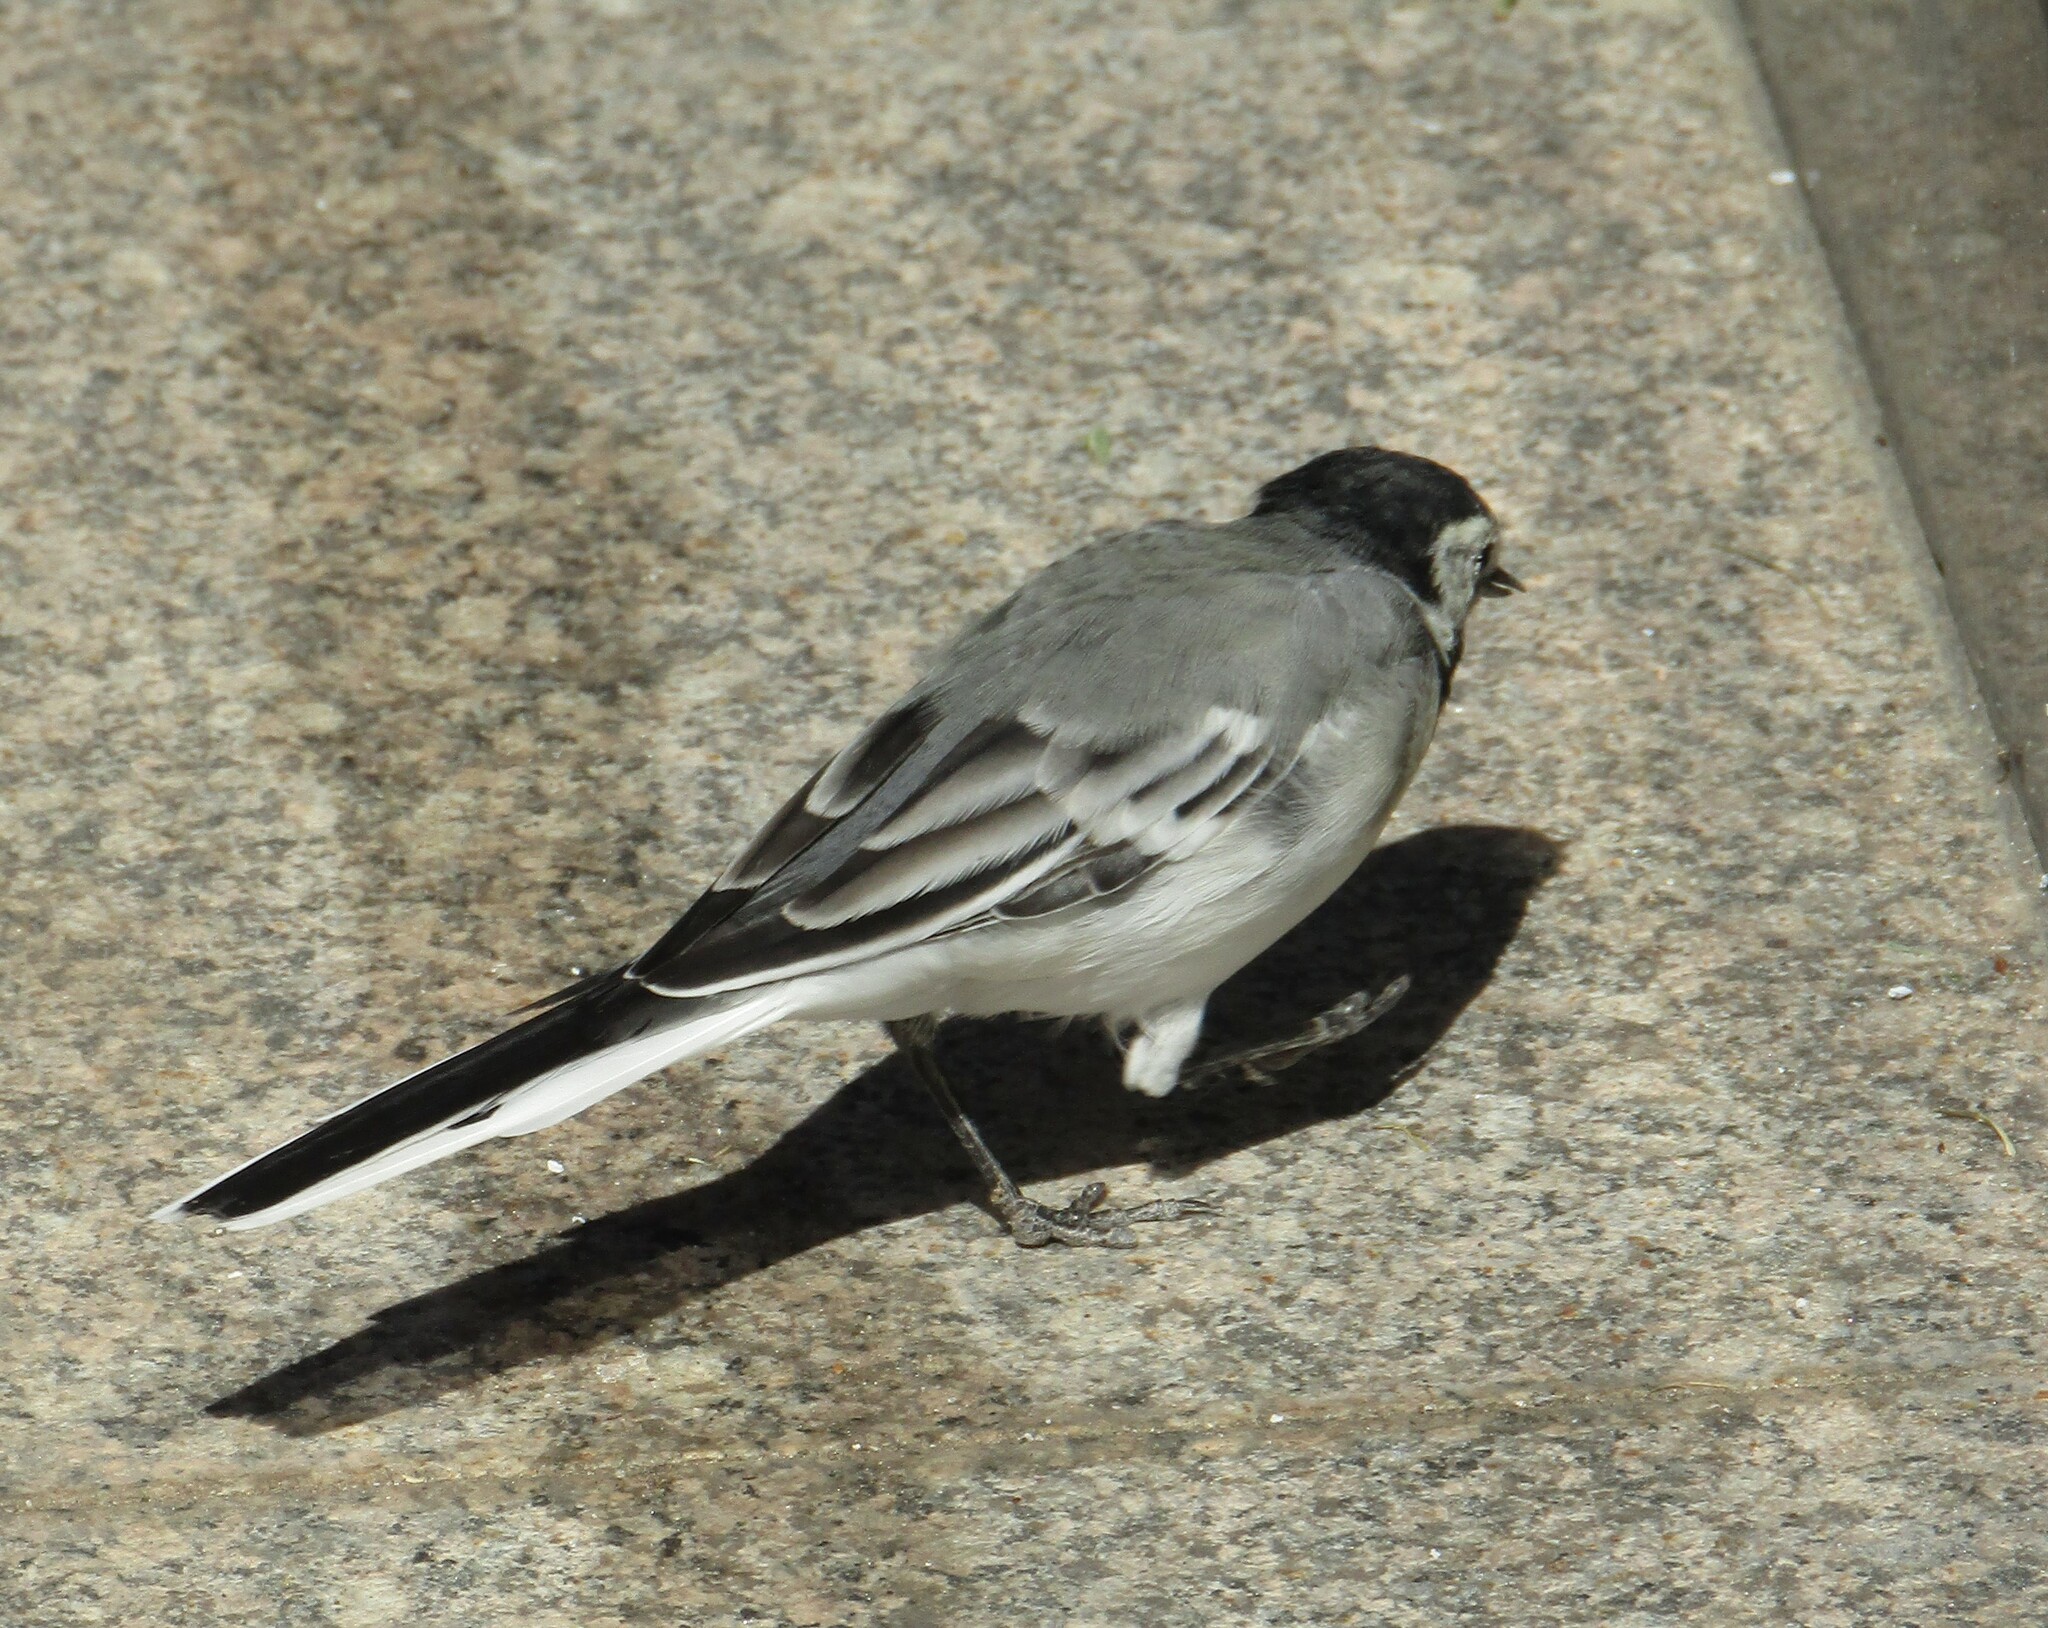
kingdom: Animalia
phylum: Chordata
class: Aves
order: Passeriformes
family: Motacillidae
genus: Motacilla
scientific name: Motacilla alba
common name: White wagtail
